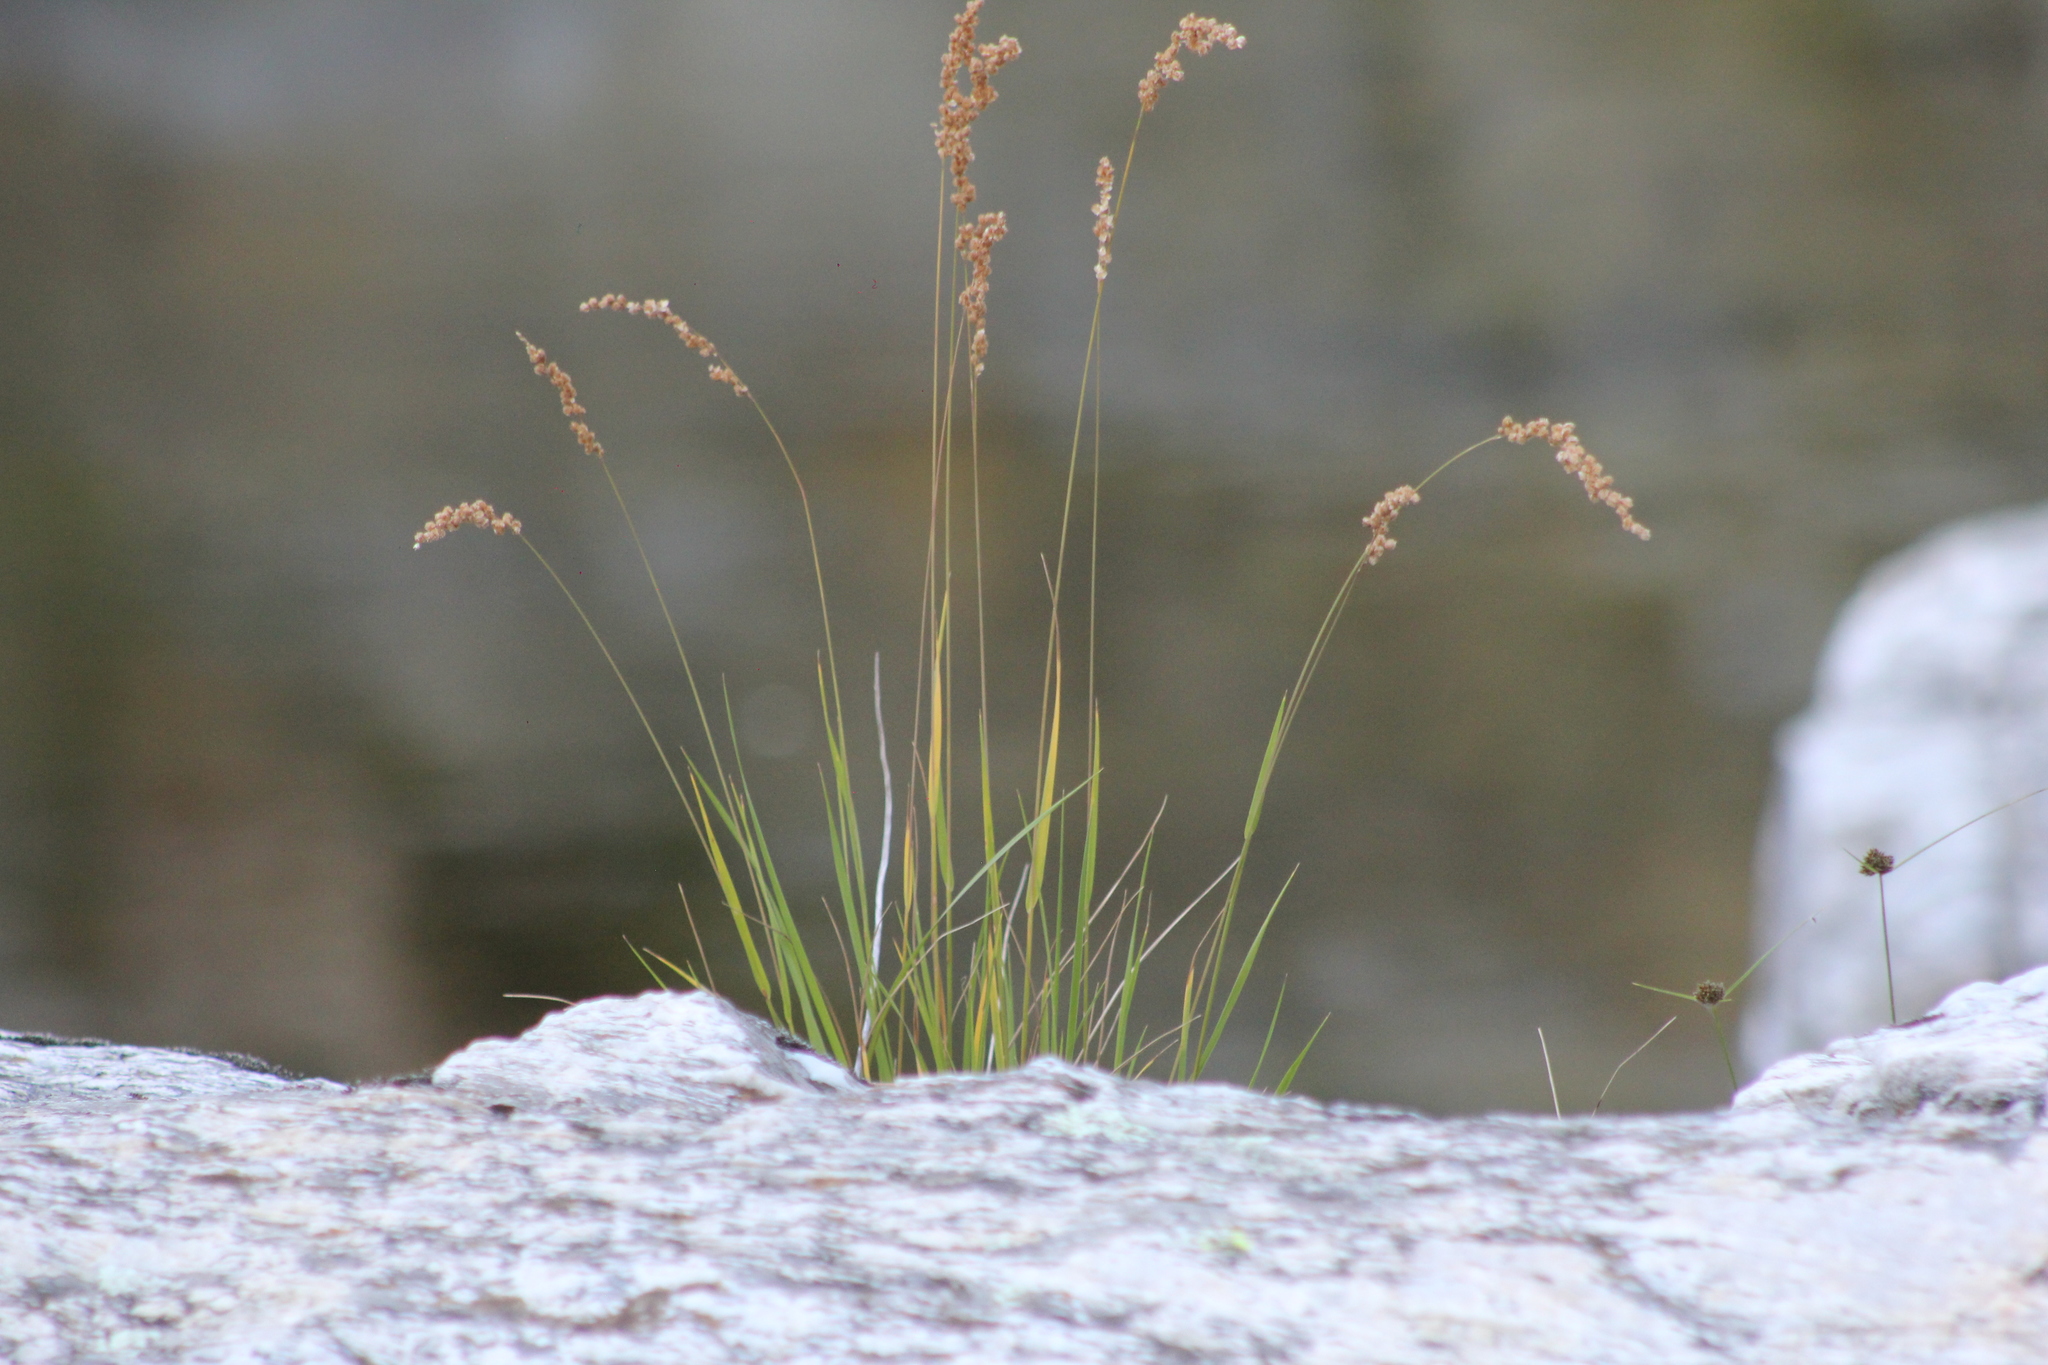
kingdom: Plantae
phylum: Tracheophyta
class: Liliopsida
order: Poales
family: Poaceae
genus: Chascolytrum
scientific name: Chascolytrum subaristatum
